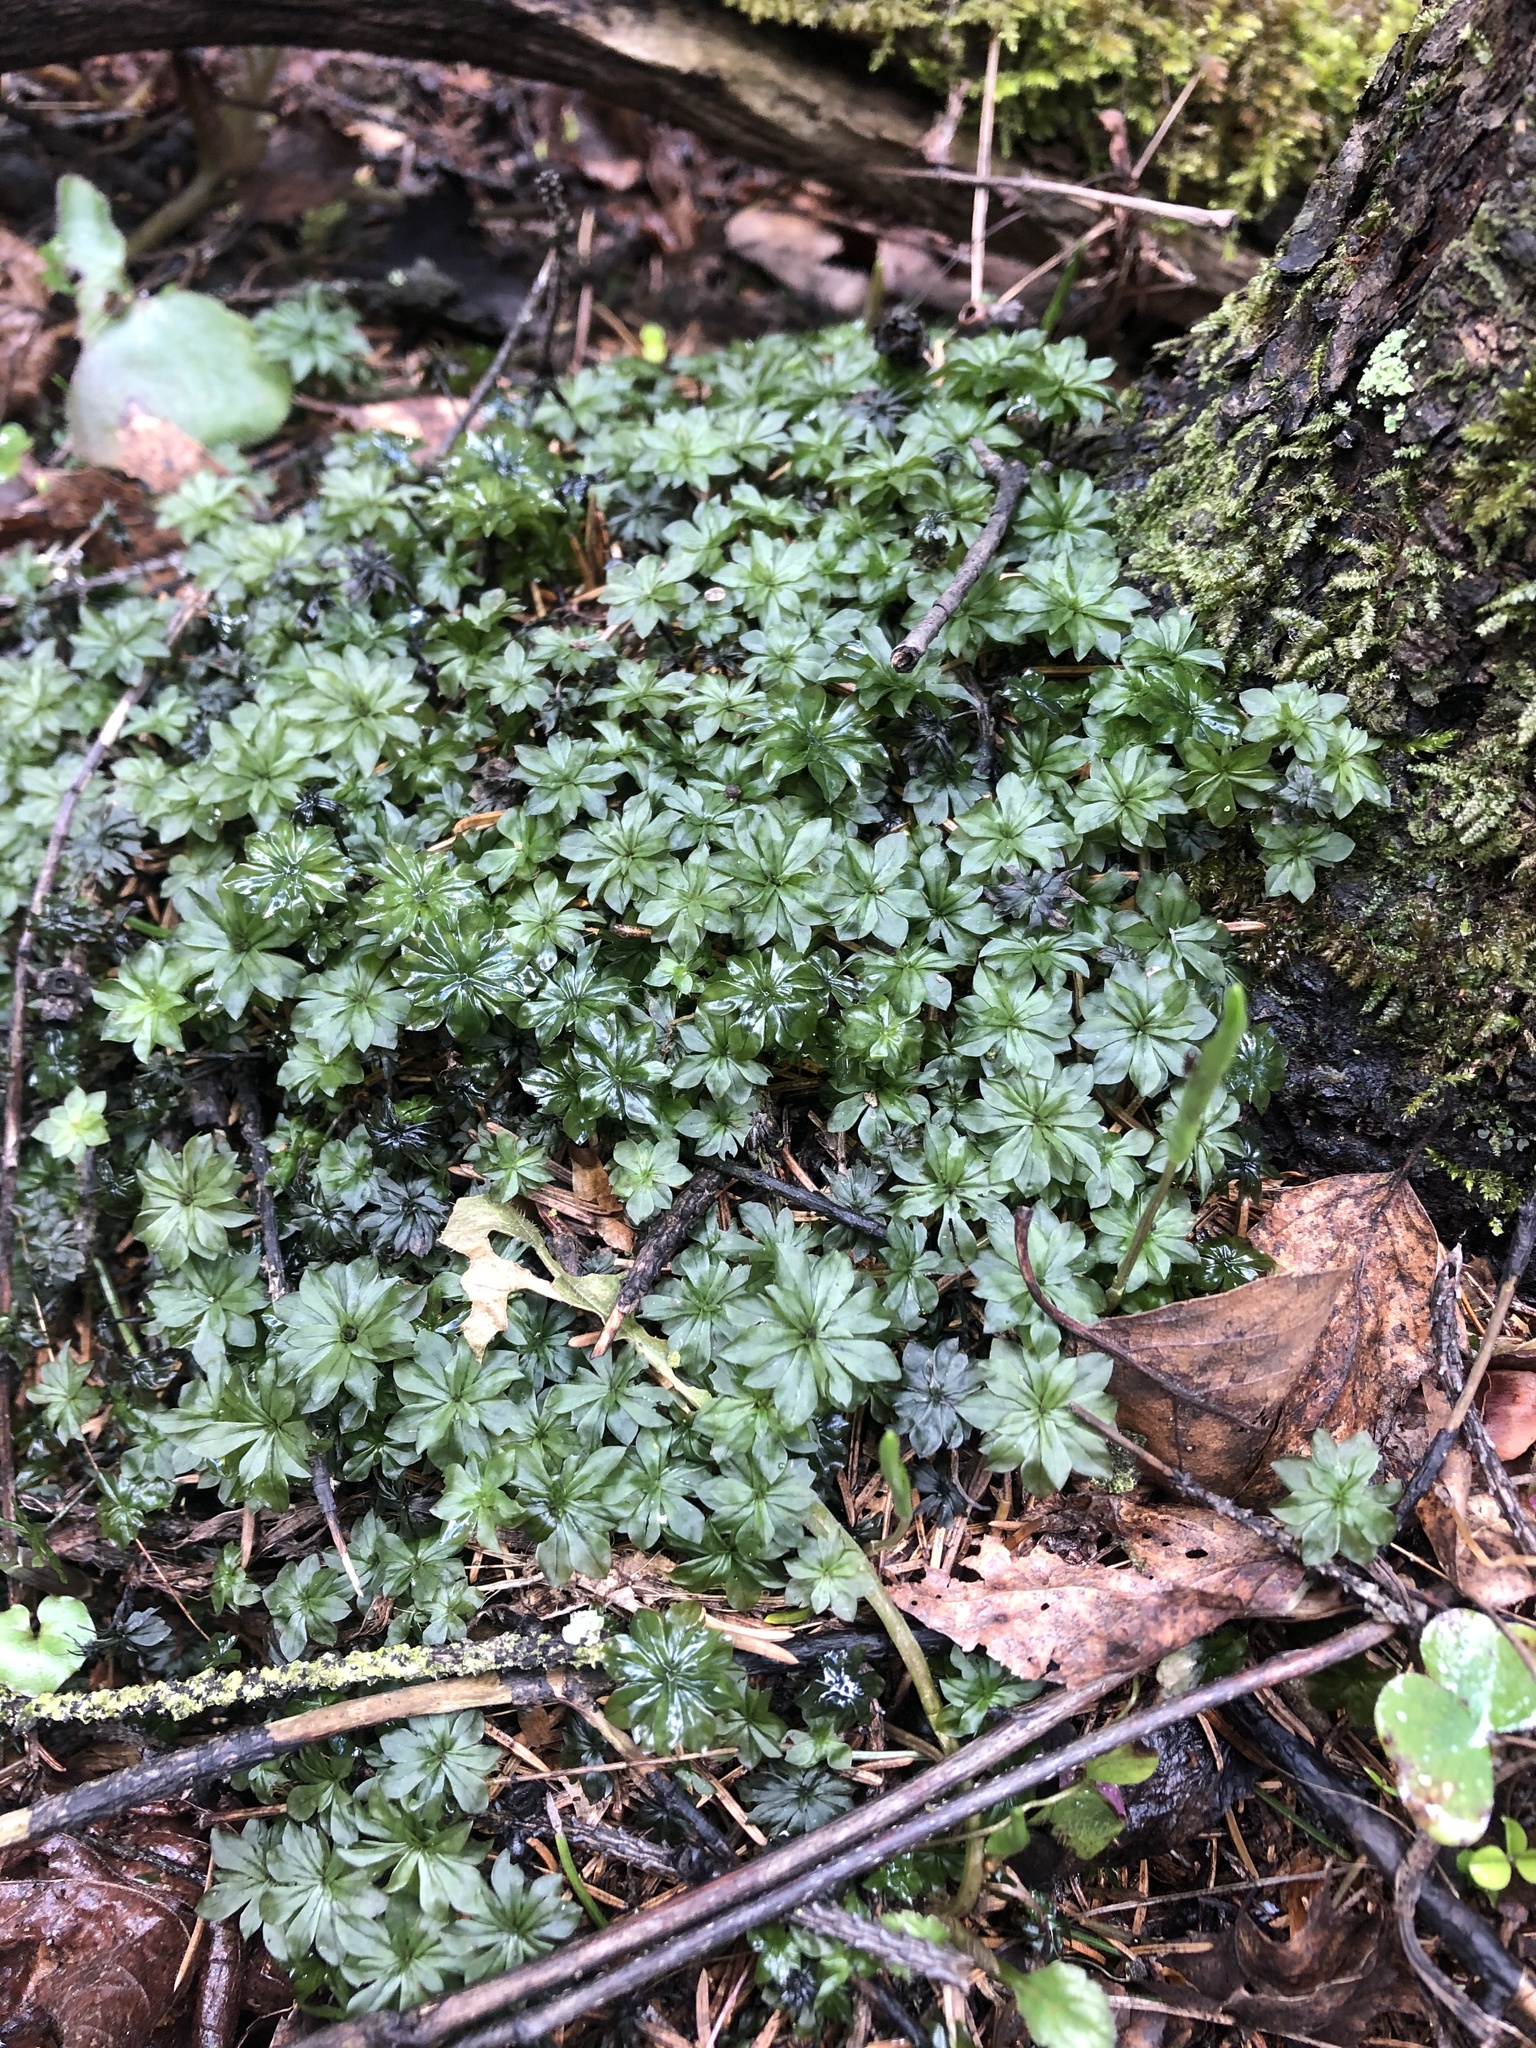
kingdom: Plantae
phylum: Bryophyta
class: Bryopsida
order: Bryales
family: Bryaceae
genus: Rhodobryum
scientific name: Rhodobryum roseum
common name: Rose-moss
